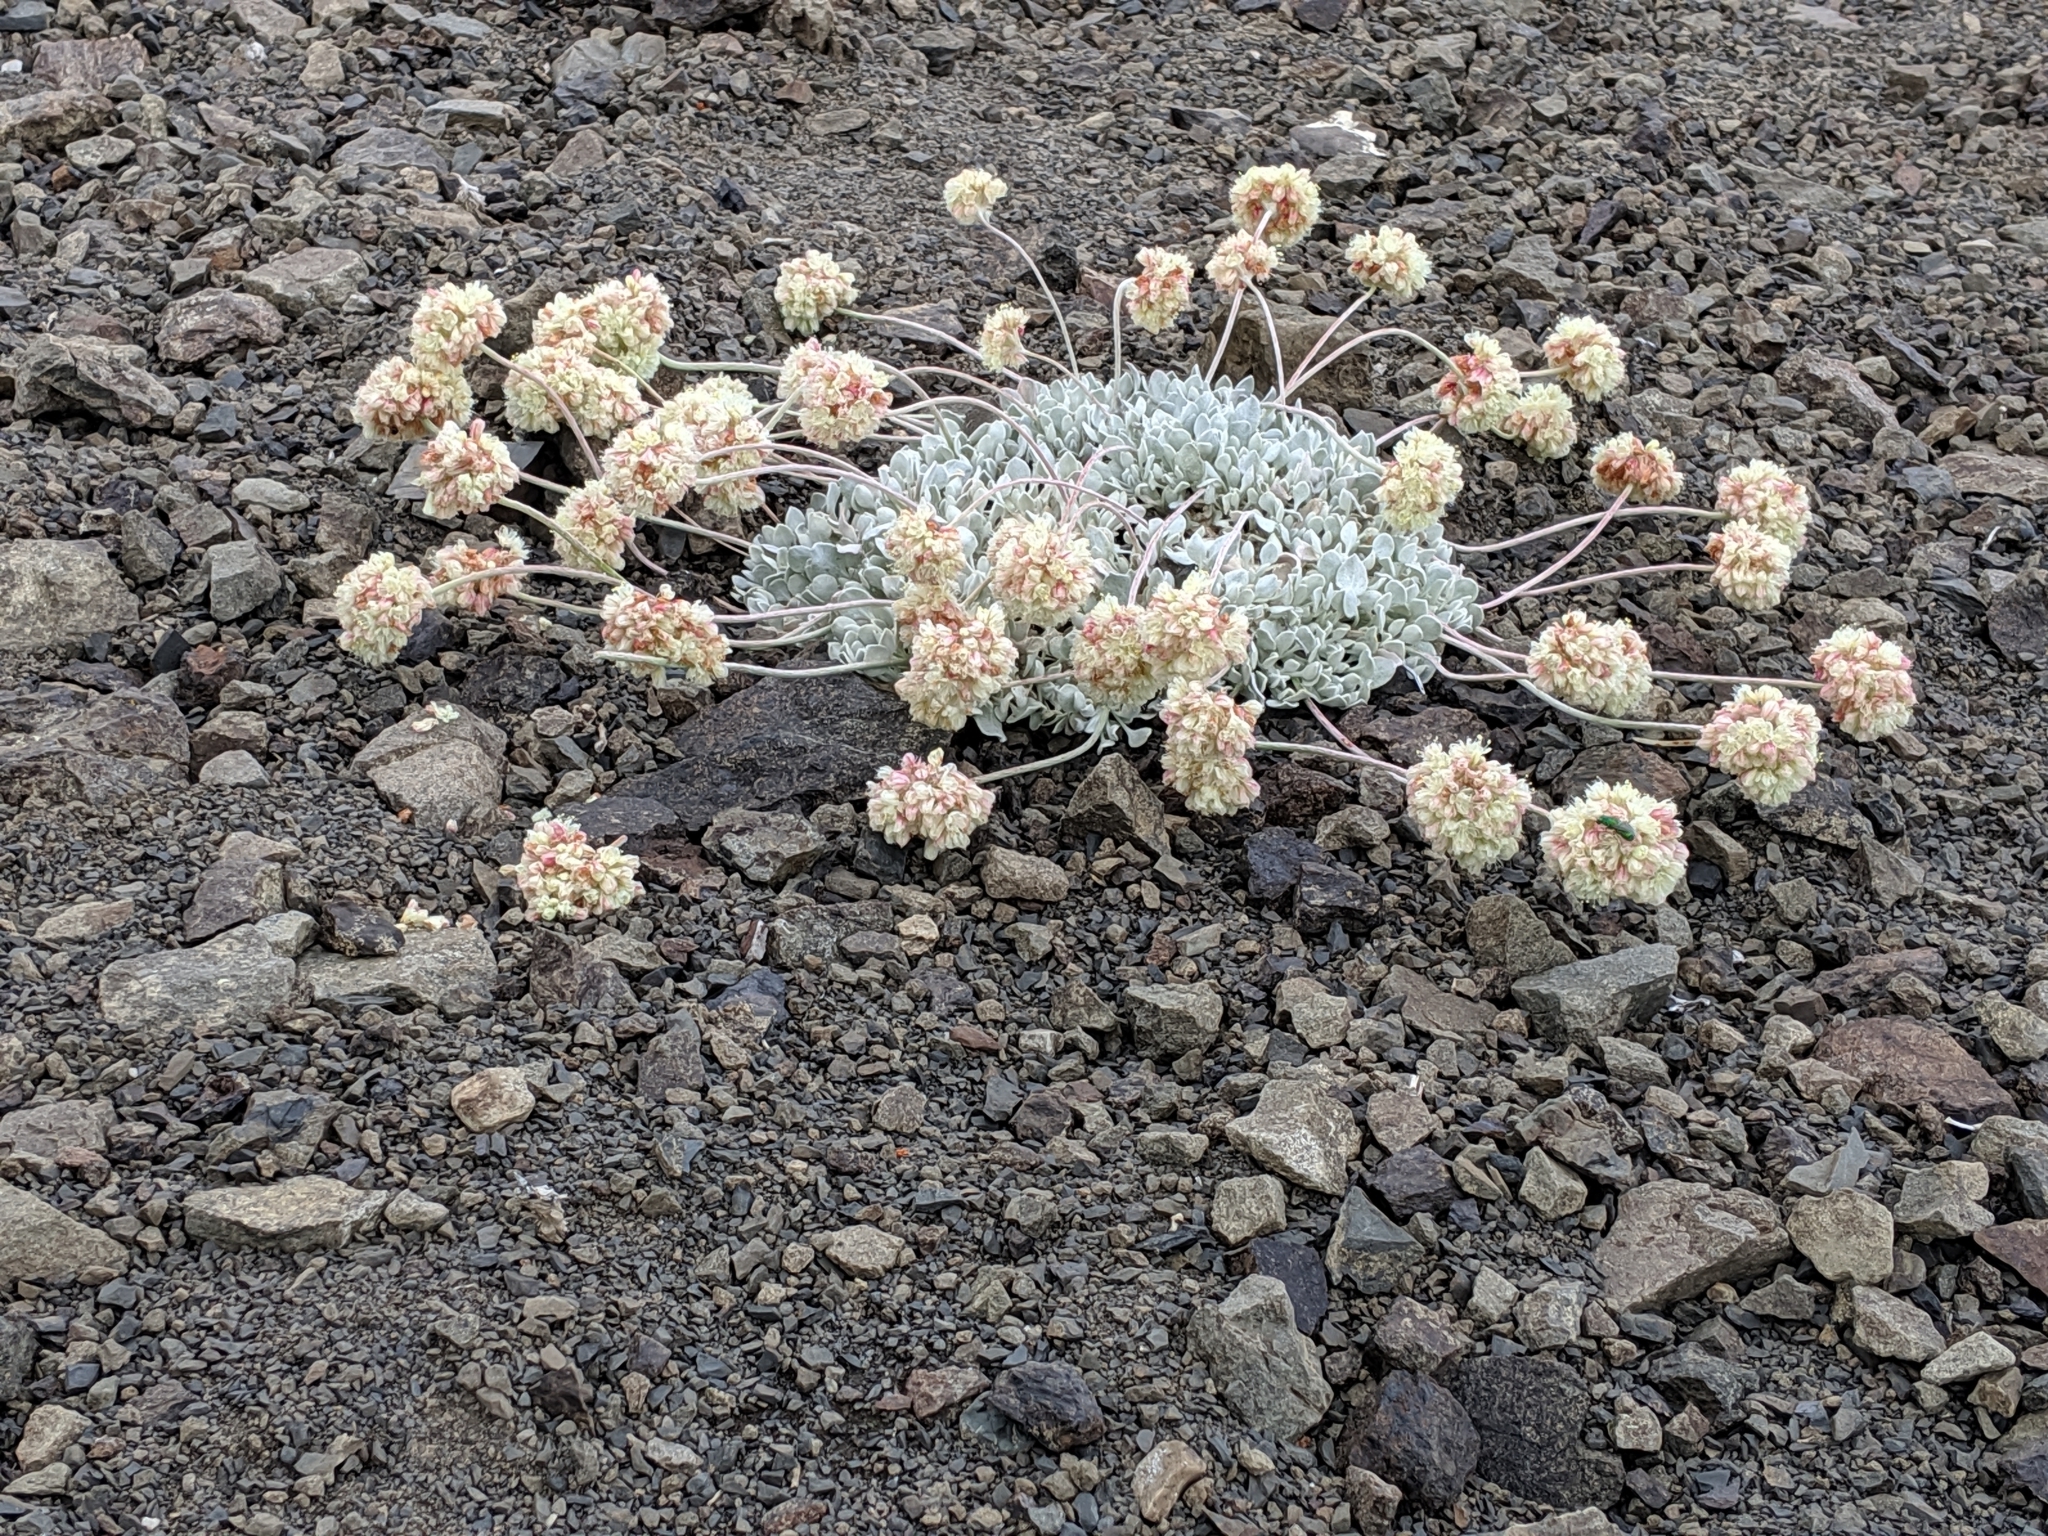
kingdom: Plantae
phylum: Tracheophyta
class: Magnoliopsida
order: Caryophyllales
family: Polygonaceae
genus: Eriogonum
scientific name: Eriogonum ovalifolium
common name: Cushion buckwheat
